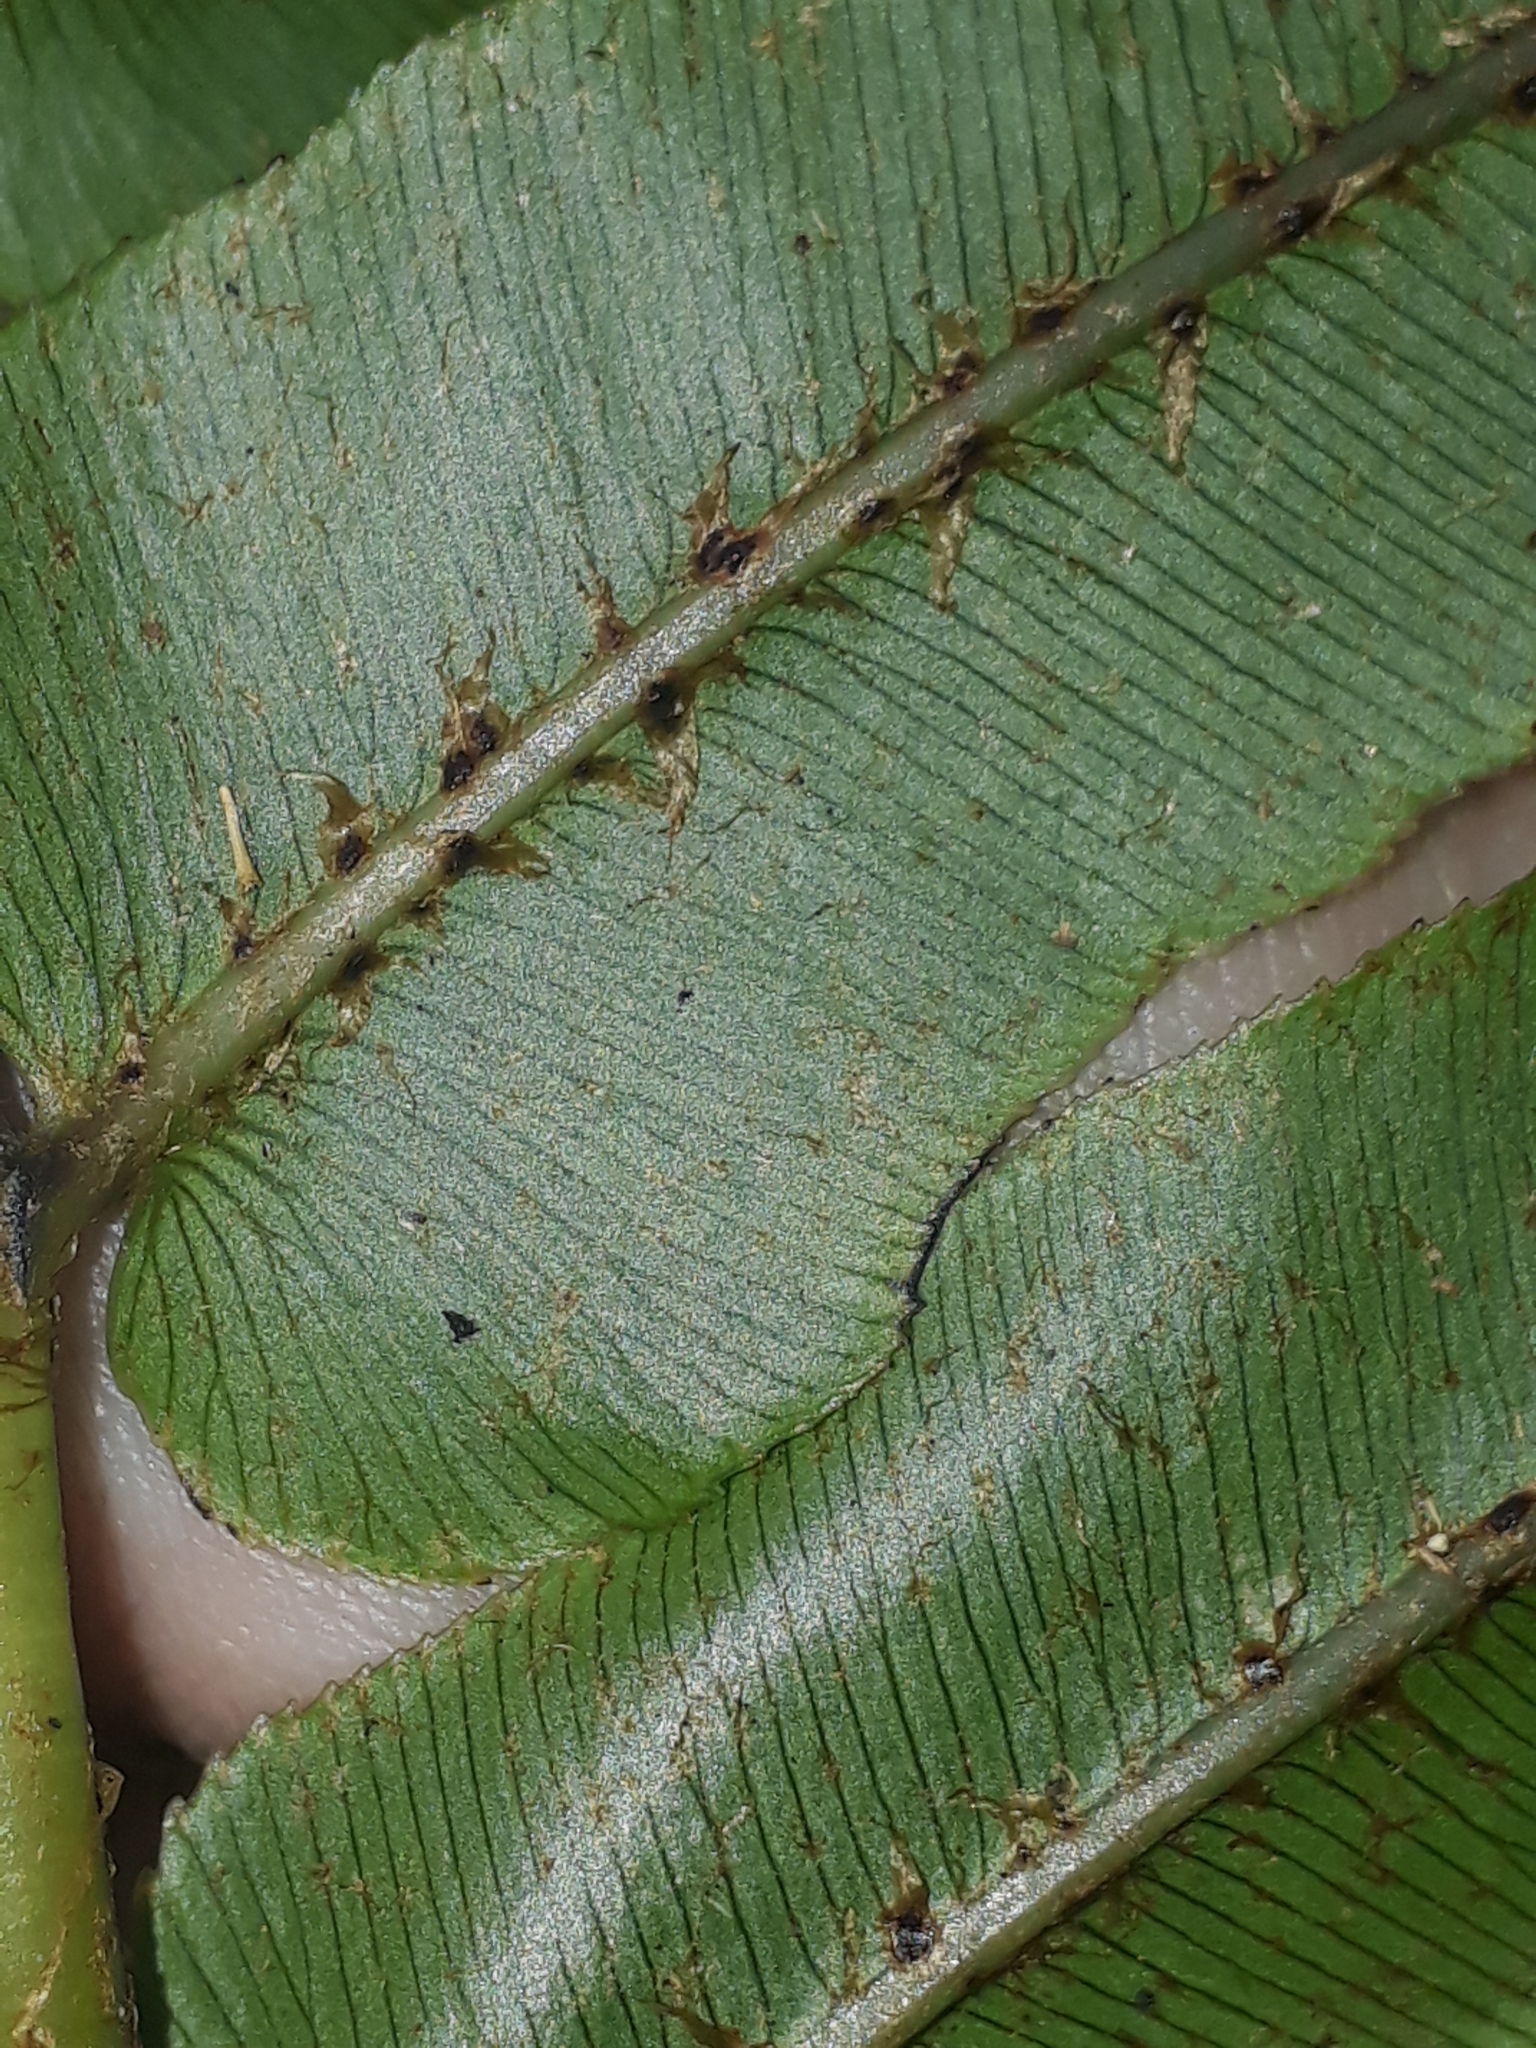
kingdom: Plantae
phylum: Tracheophyta
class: Polypodiopsida
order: Polypodiales
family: Blechnaceae
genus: Parablechnum
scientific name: Parablechnum novae-zelandiae
